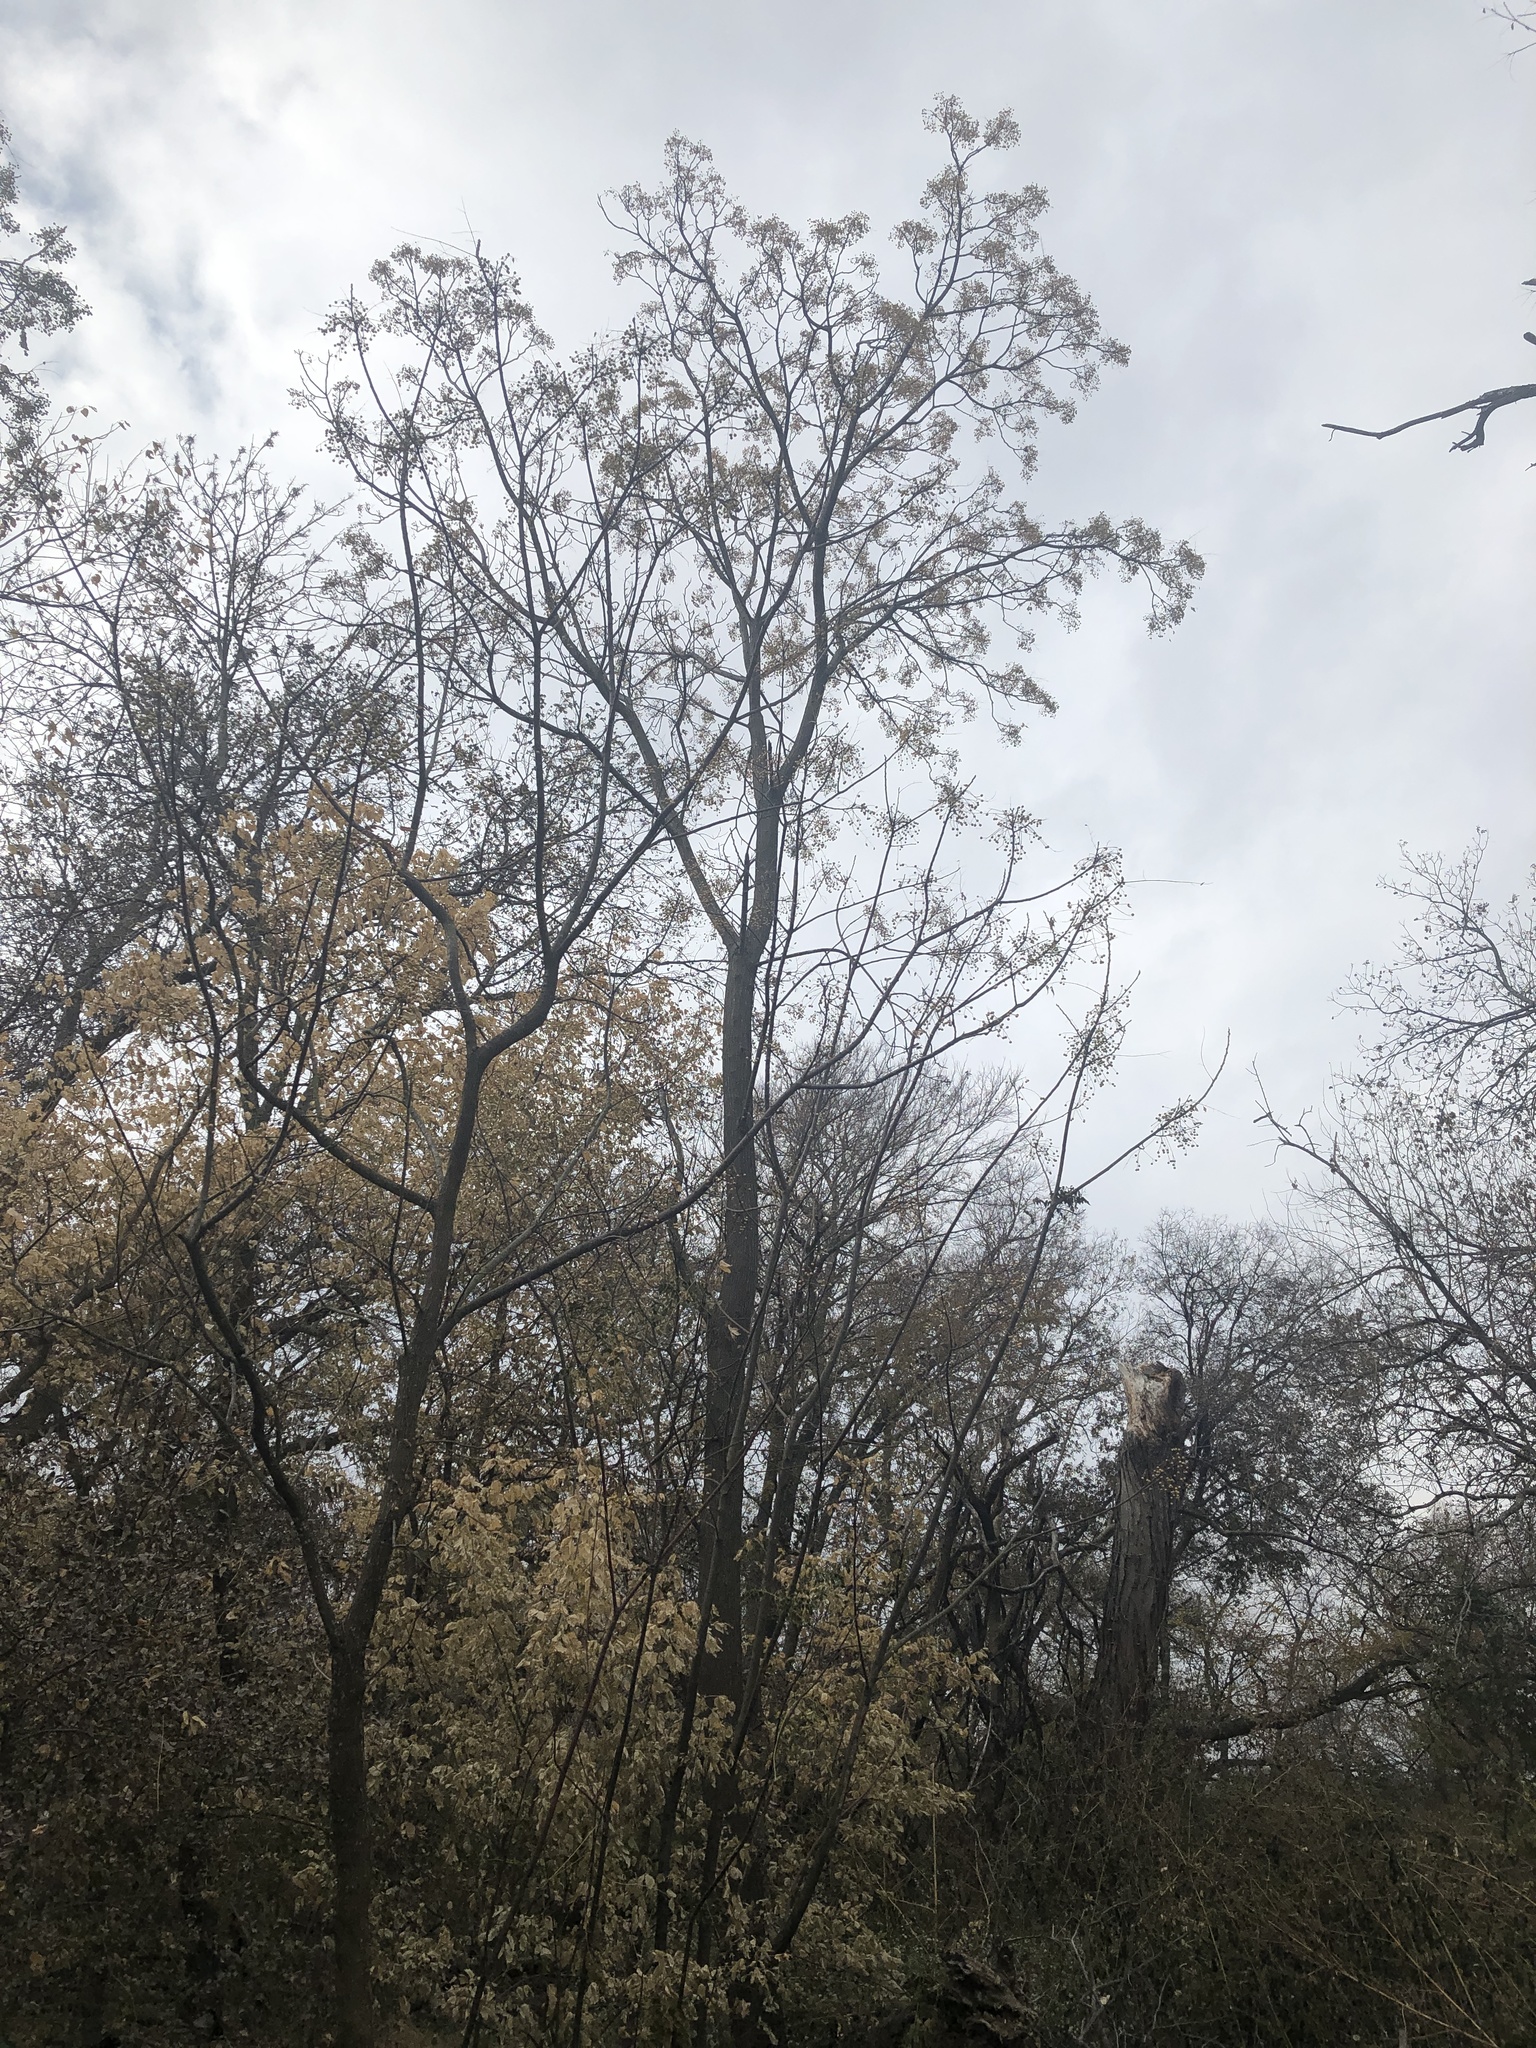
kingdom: Plantae
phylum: Tracheophyta
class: Magnoliopsida
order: Sapindales
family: Meliaceae
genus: Melia
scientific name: Melia azedarach
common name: Chinaberrytree
